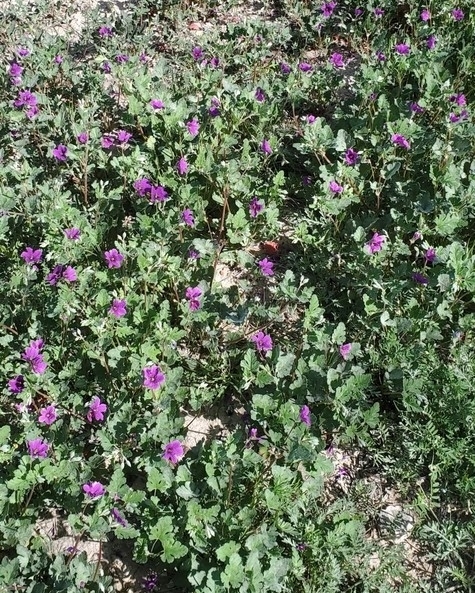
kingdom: Plantae
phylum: Tracheophyta
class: Magnoliopsida
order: Geraniales
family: Geraniaceae
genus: Erodium
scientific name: Erodium texanum
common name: Texas stork's-bill
